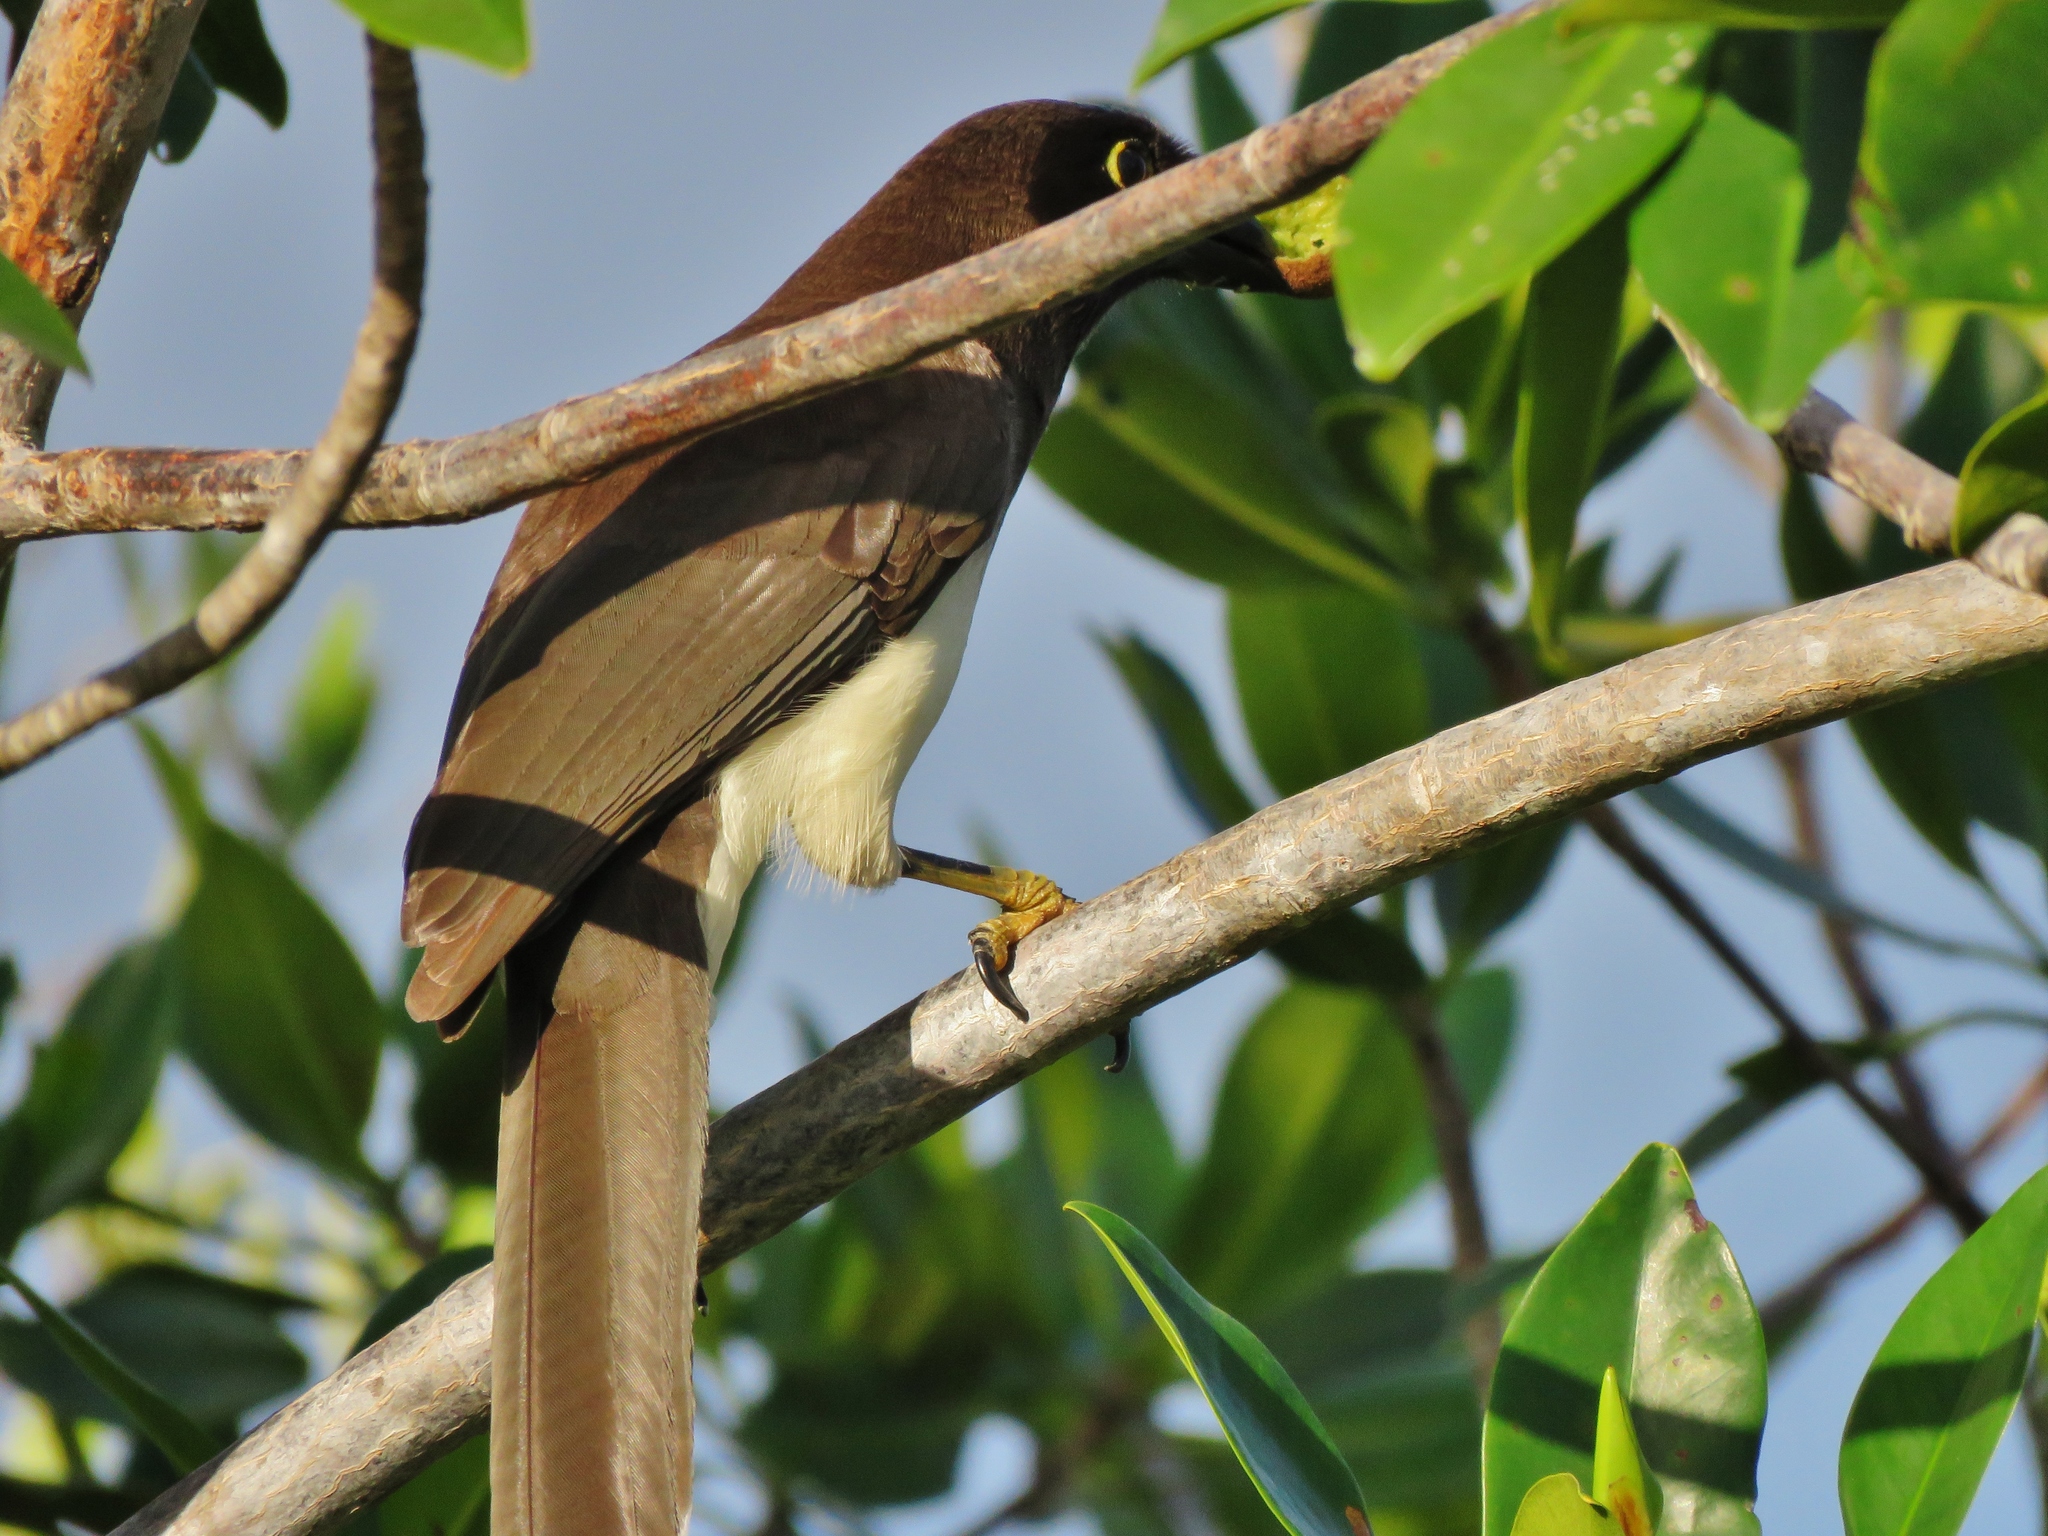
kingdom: Animalia
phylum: Chordata
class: Aves
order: Passeriformes
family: Corvidae
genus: Psilorhinus
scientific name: Psilorhinus morio
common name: Brown jay
